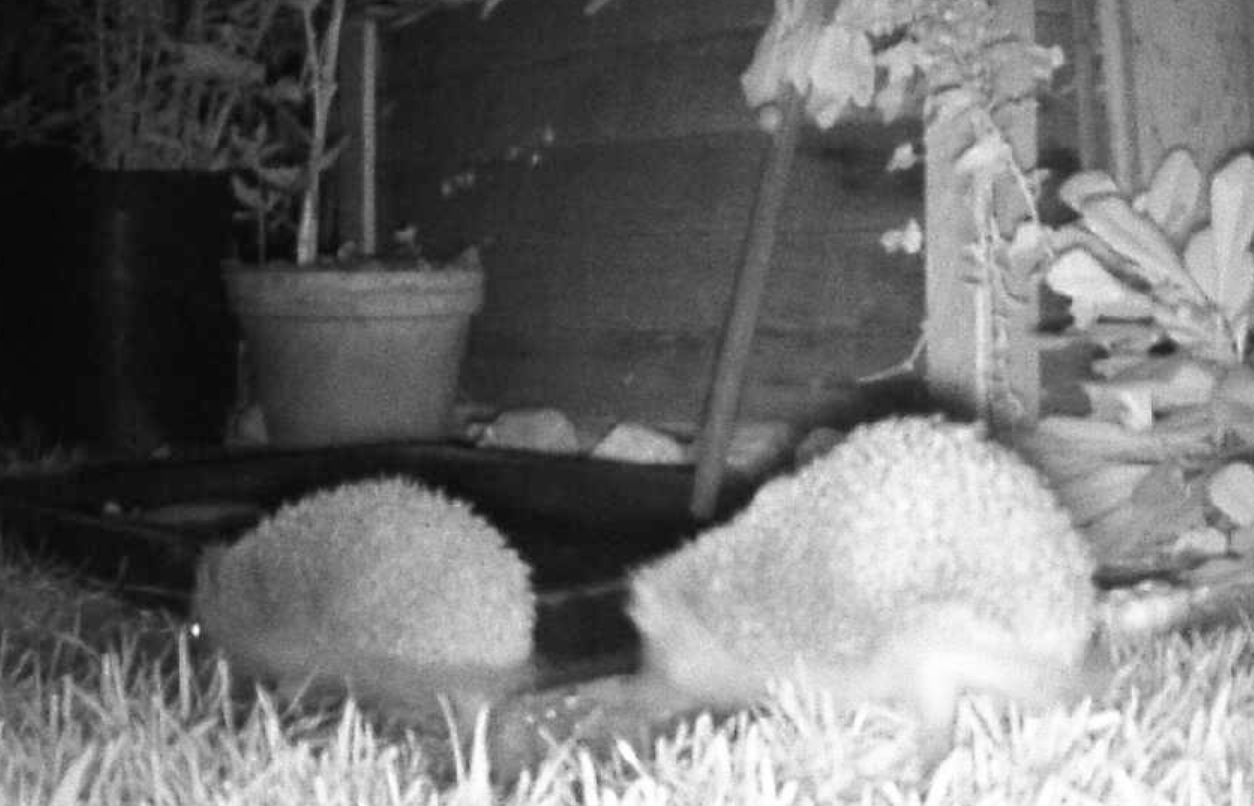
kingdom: Animalia
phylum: Chordata
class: Mammalia
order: Erinaceomorpha
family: Erinaceidae
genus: Erinaceus
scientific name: Erinaceus europaeus
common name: West european hedgehog
